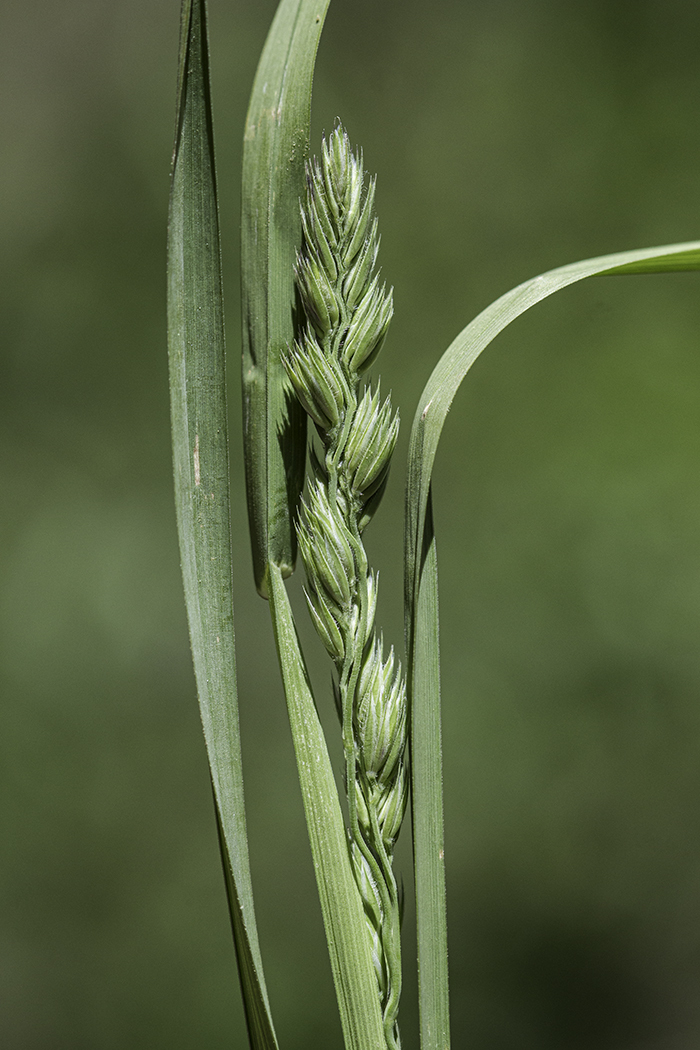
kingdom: Plantae
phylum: Tracheophyta
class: Liliopsida
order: Poales
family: Poaceae
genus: Dactylis
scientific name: Dactylis glomerata
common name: Orchardgrass
